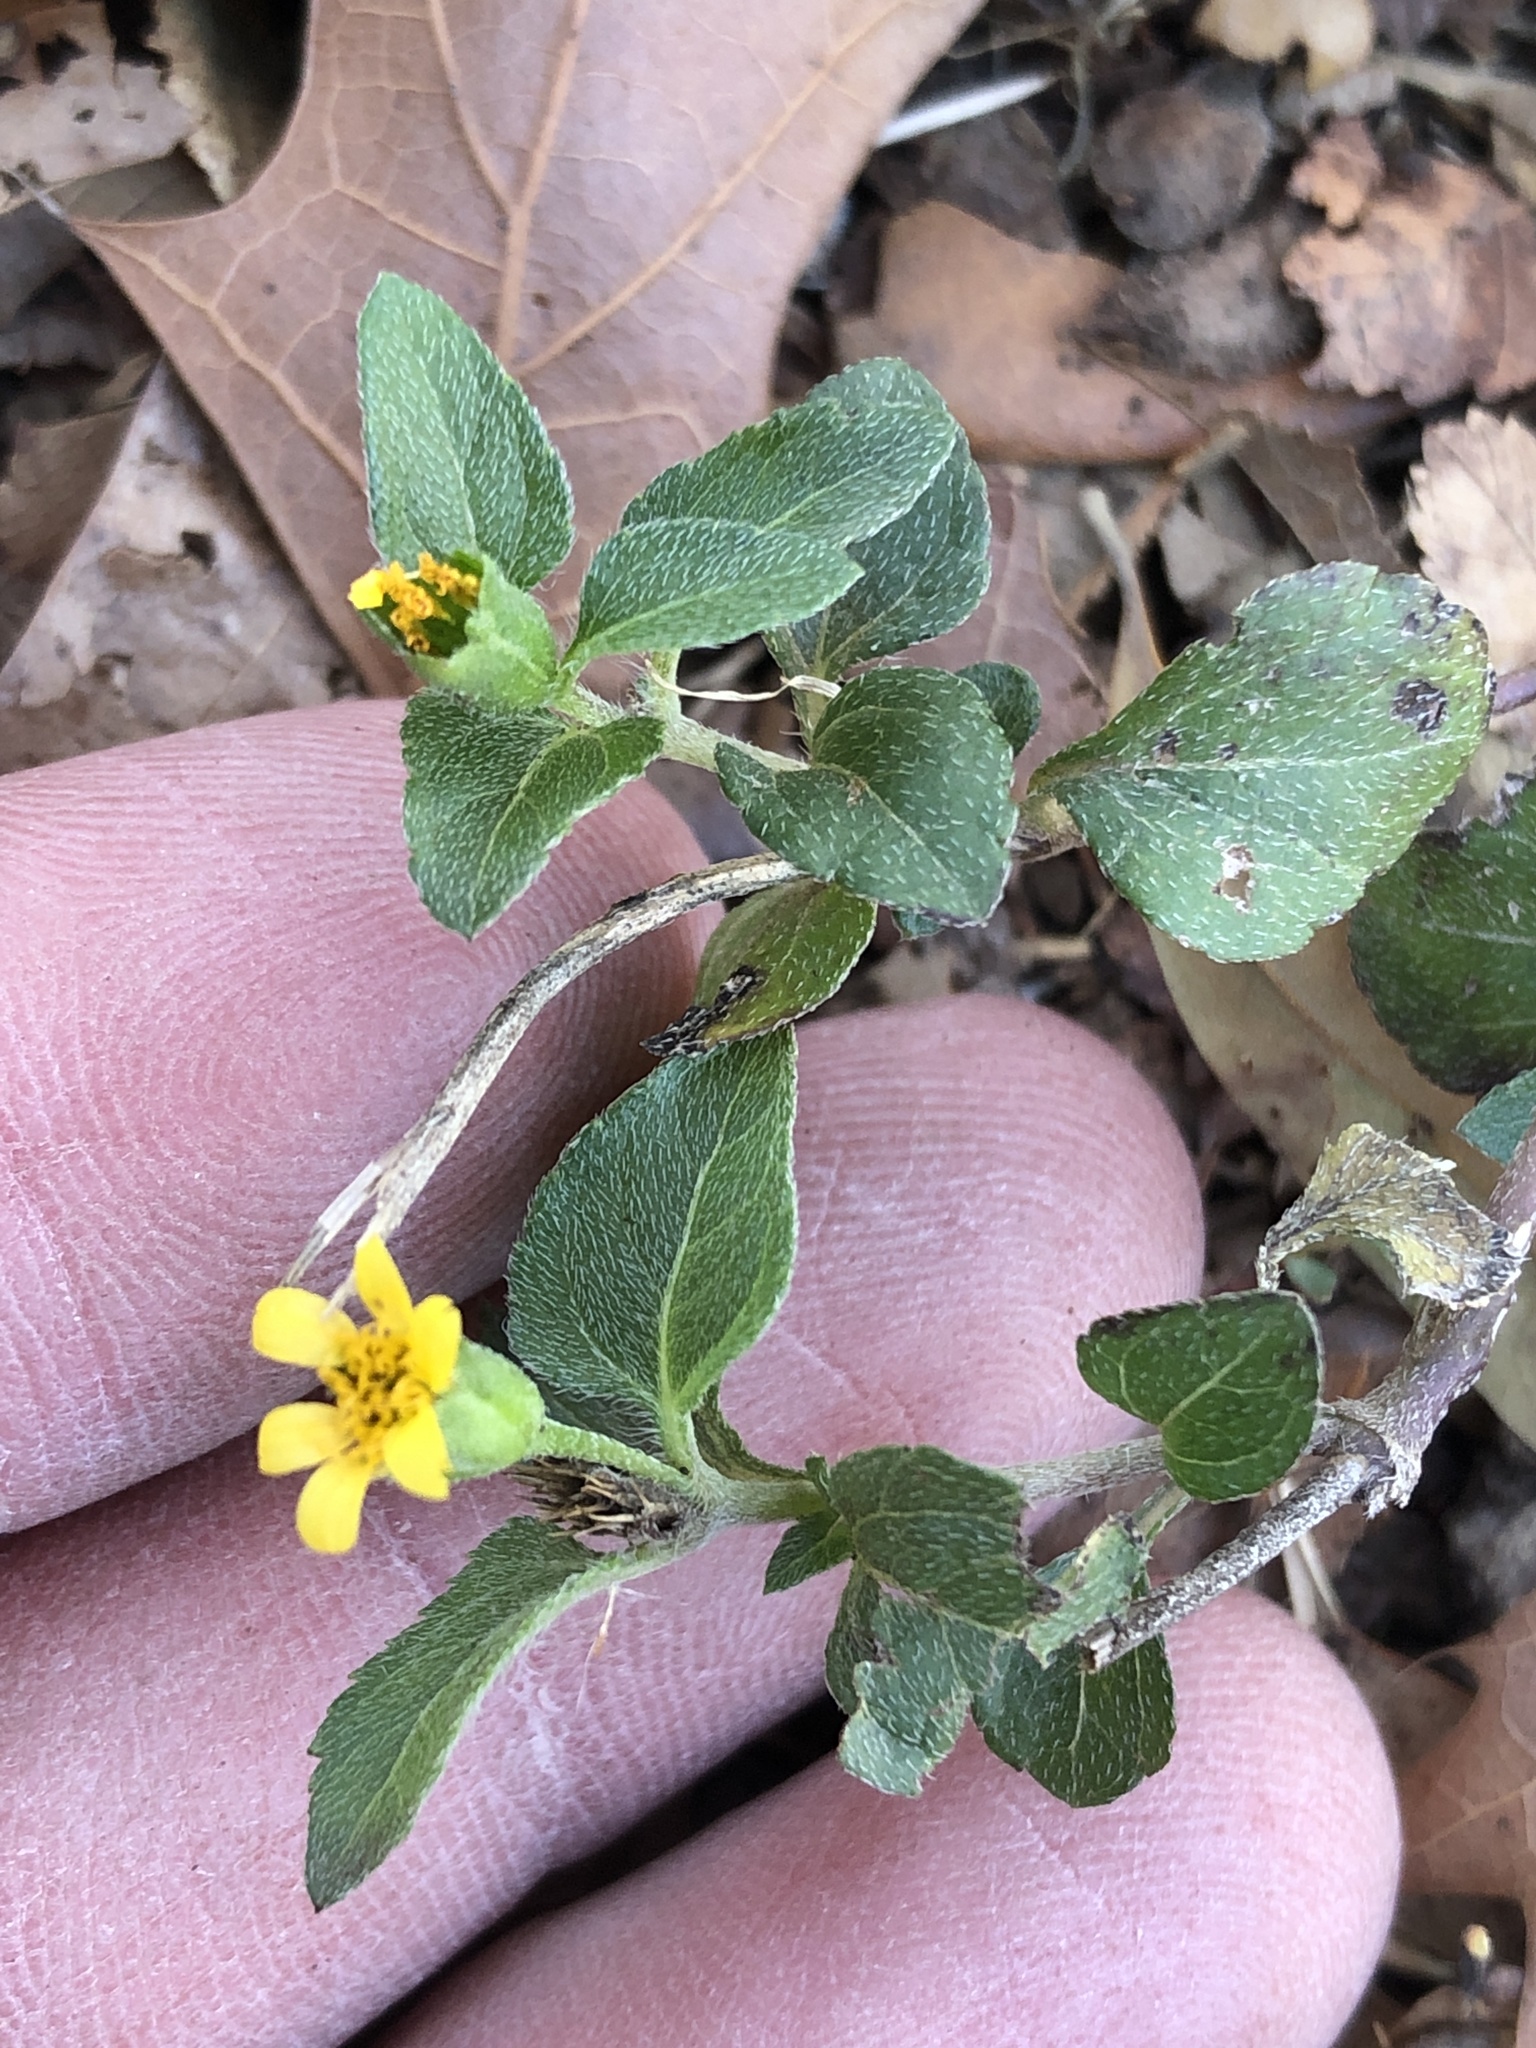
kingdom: Plantae
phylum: Tracheophyta
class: Magnoliopsida
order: Asterales
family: Asteraceae
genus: Calyptocarpus
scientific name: Calyptocarpus vialis
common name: Straggler daisy
